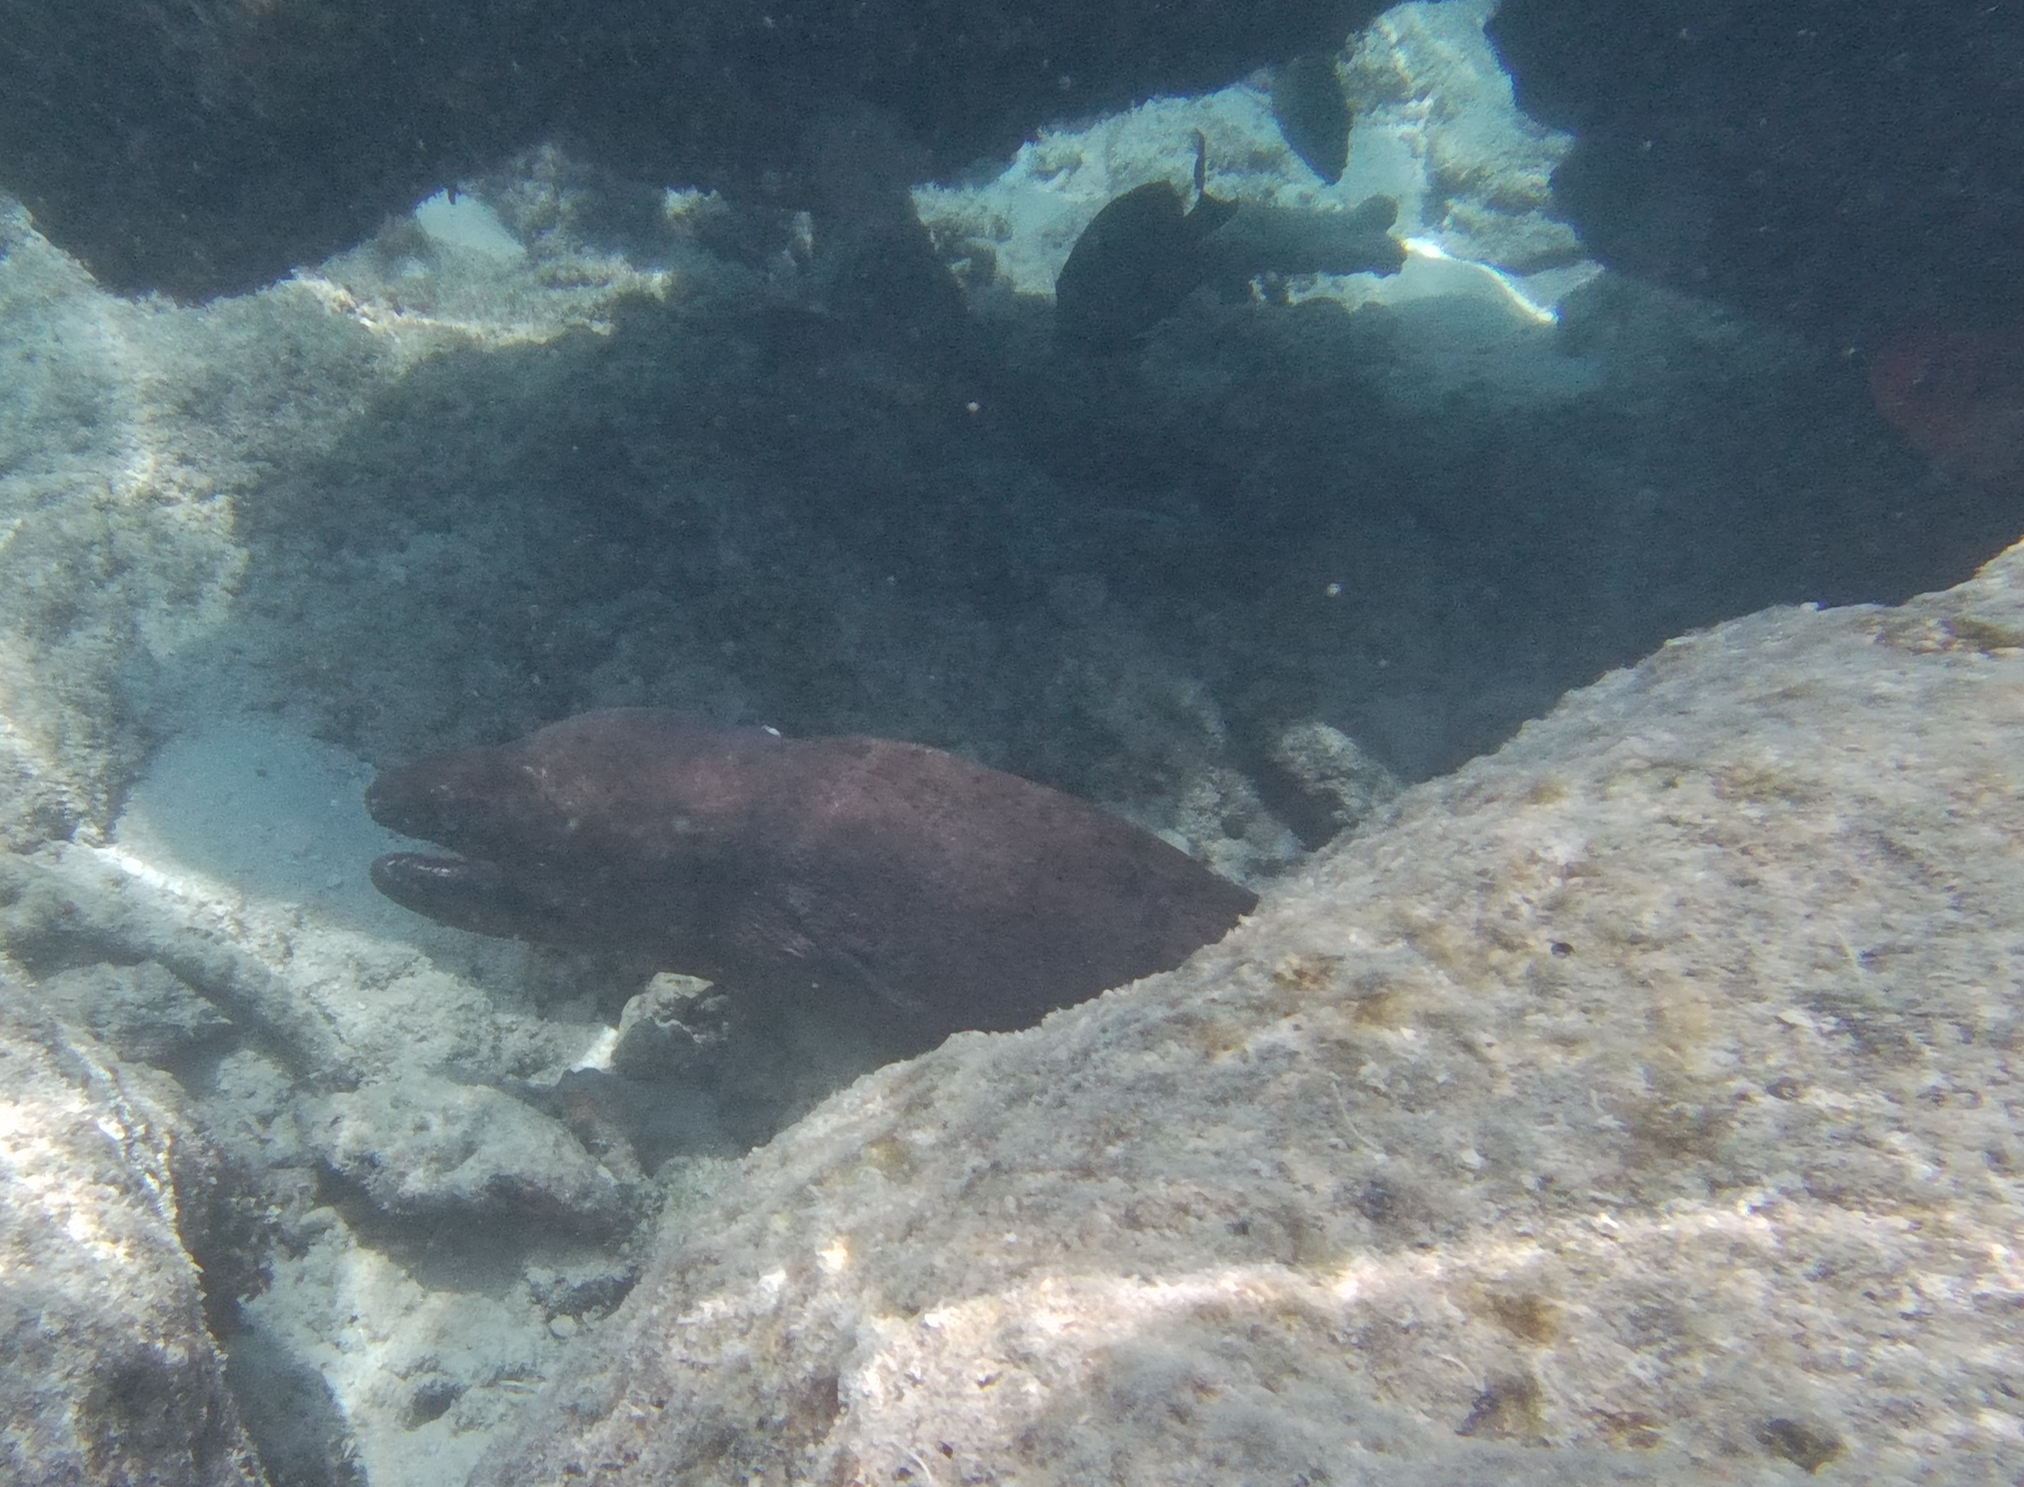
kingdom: Animalia
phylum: Chordata
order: Anguilliformes
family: Muraenidae
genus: Gymnothorax
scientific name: Gymnothorax javanicus
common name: Giant moray
